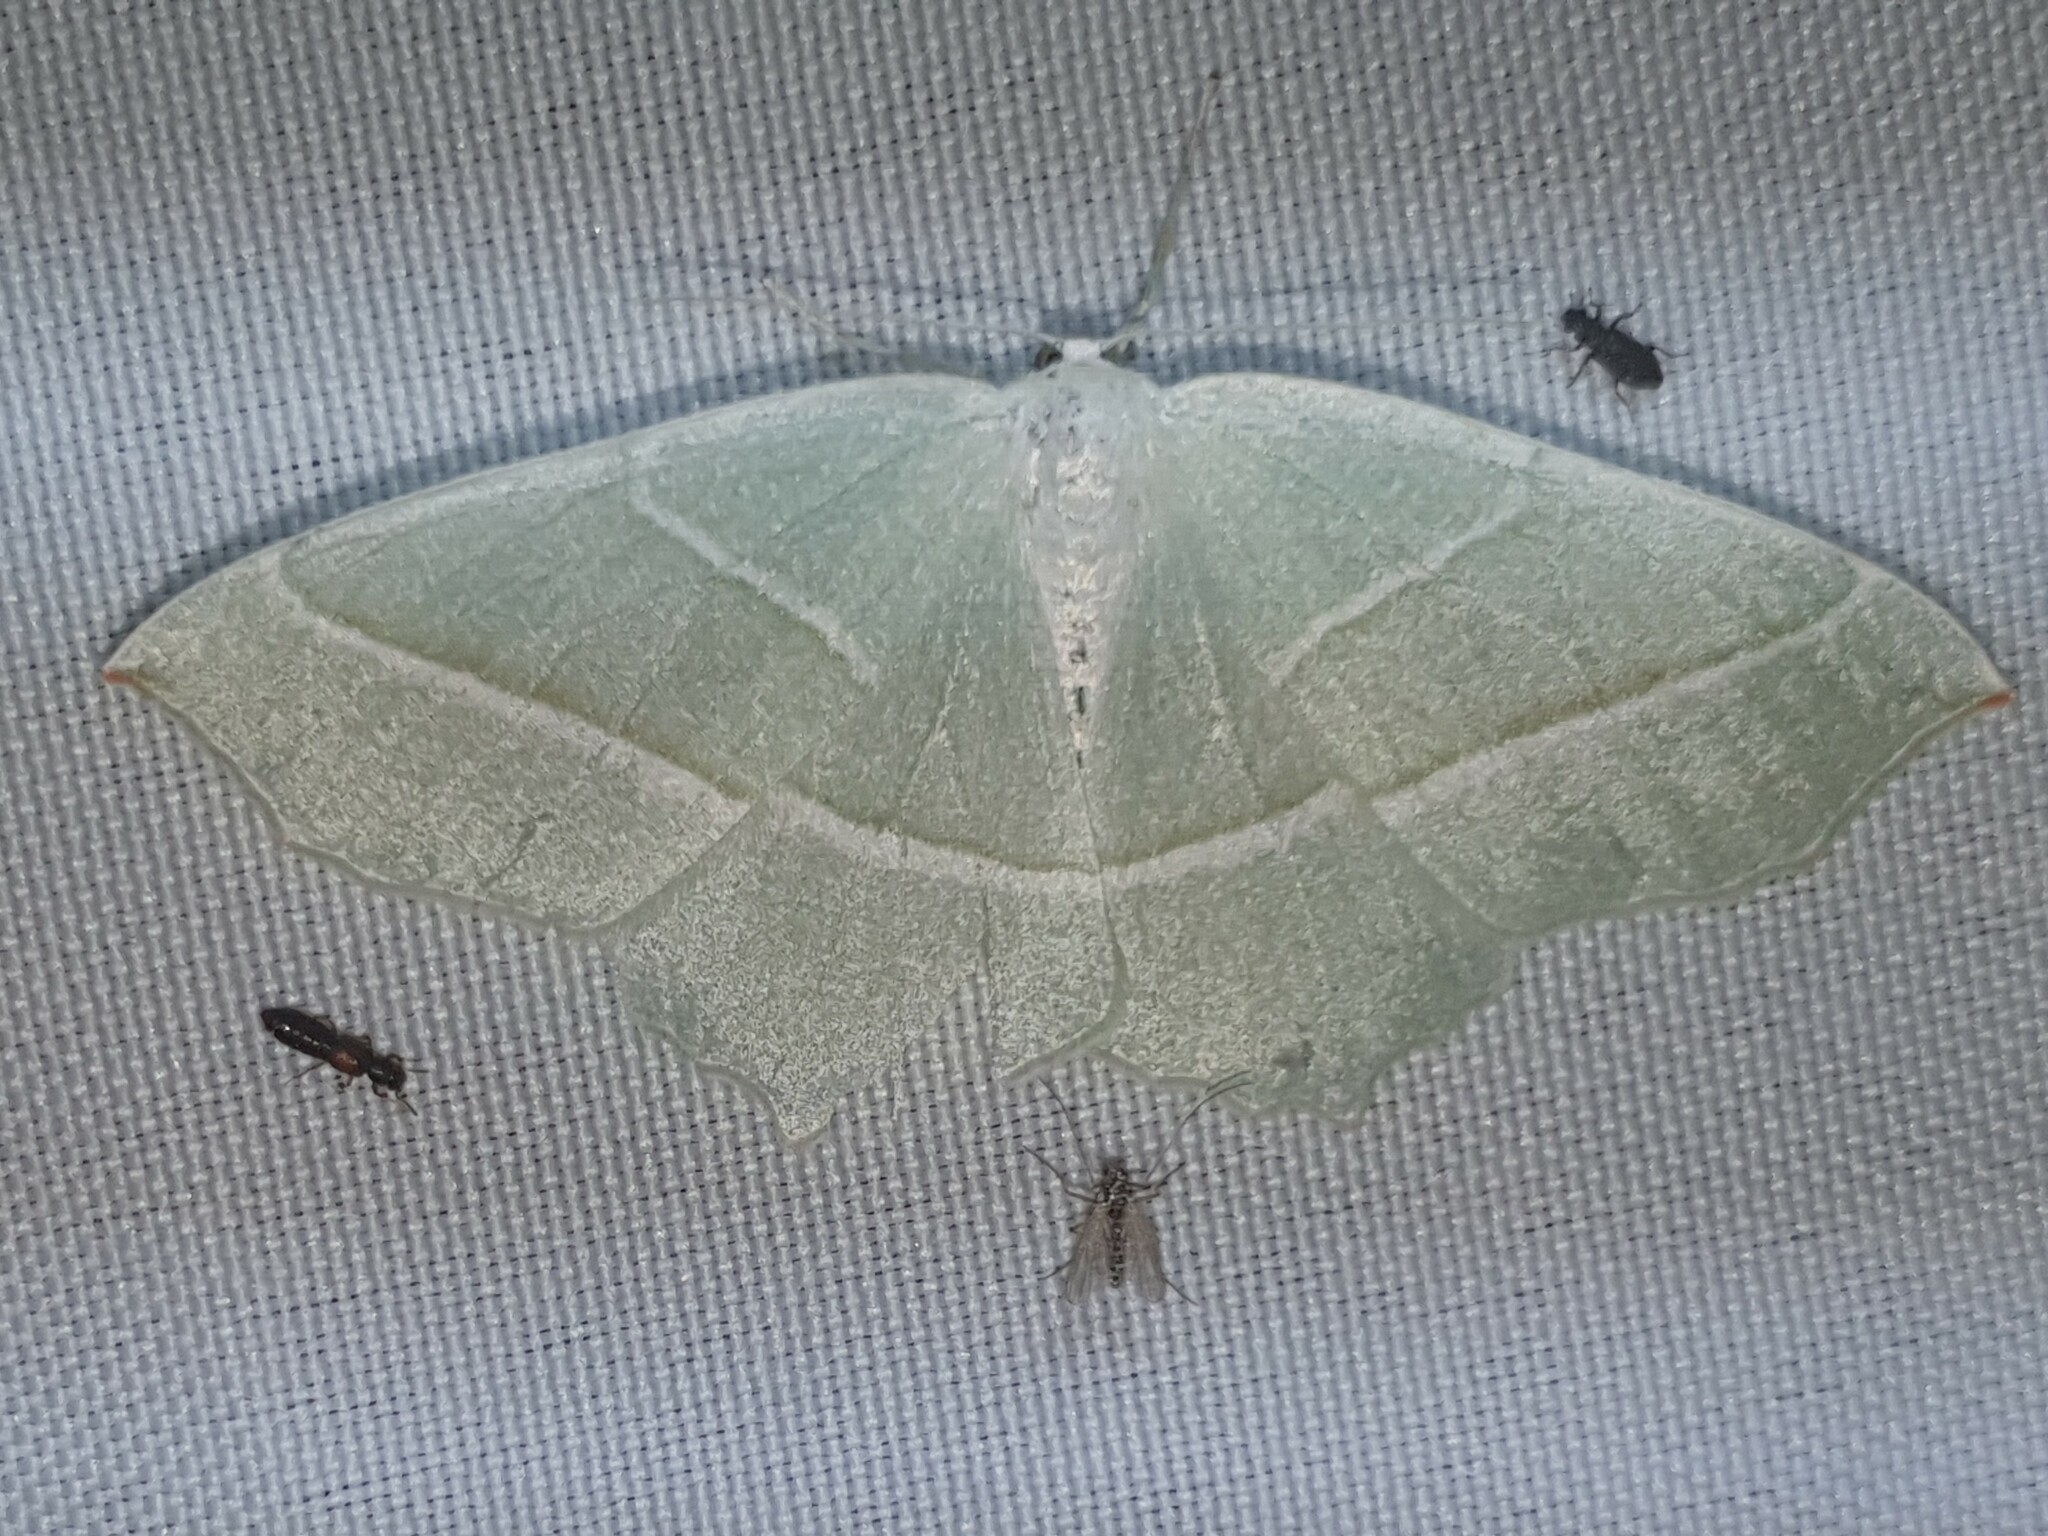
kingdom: Animalia
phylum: Arthropoda
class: Insecta
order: Lepidoptera
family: Geometridae
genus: Campaea
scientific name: Campaea margaritaria
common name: Light emerald
